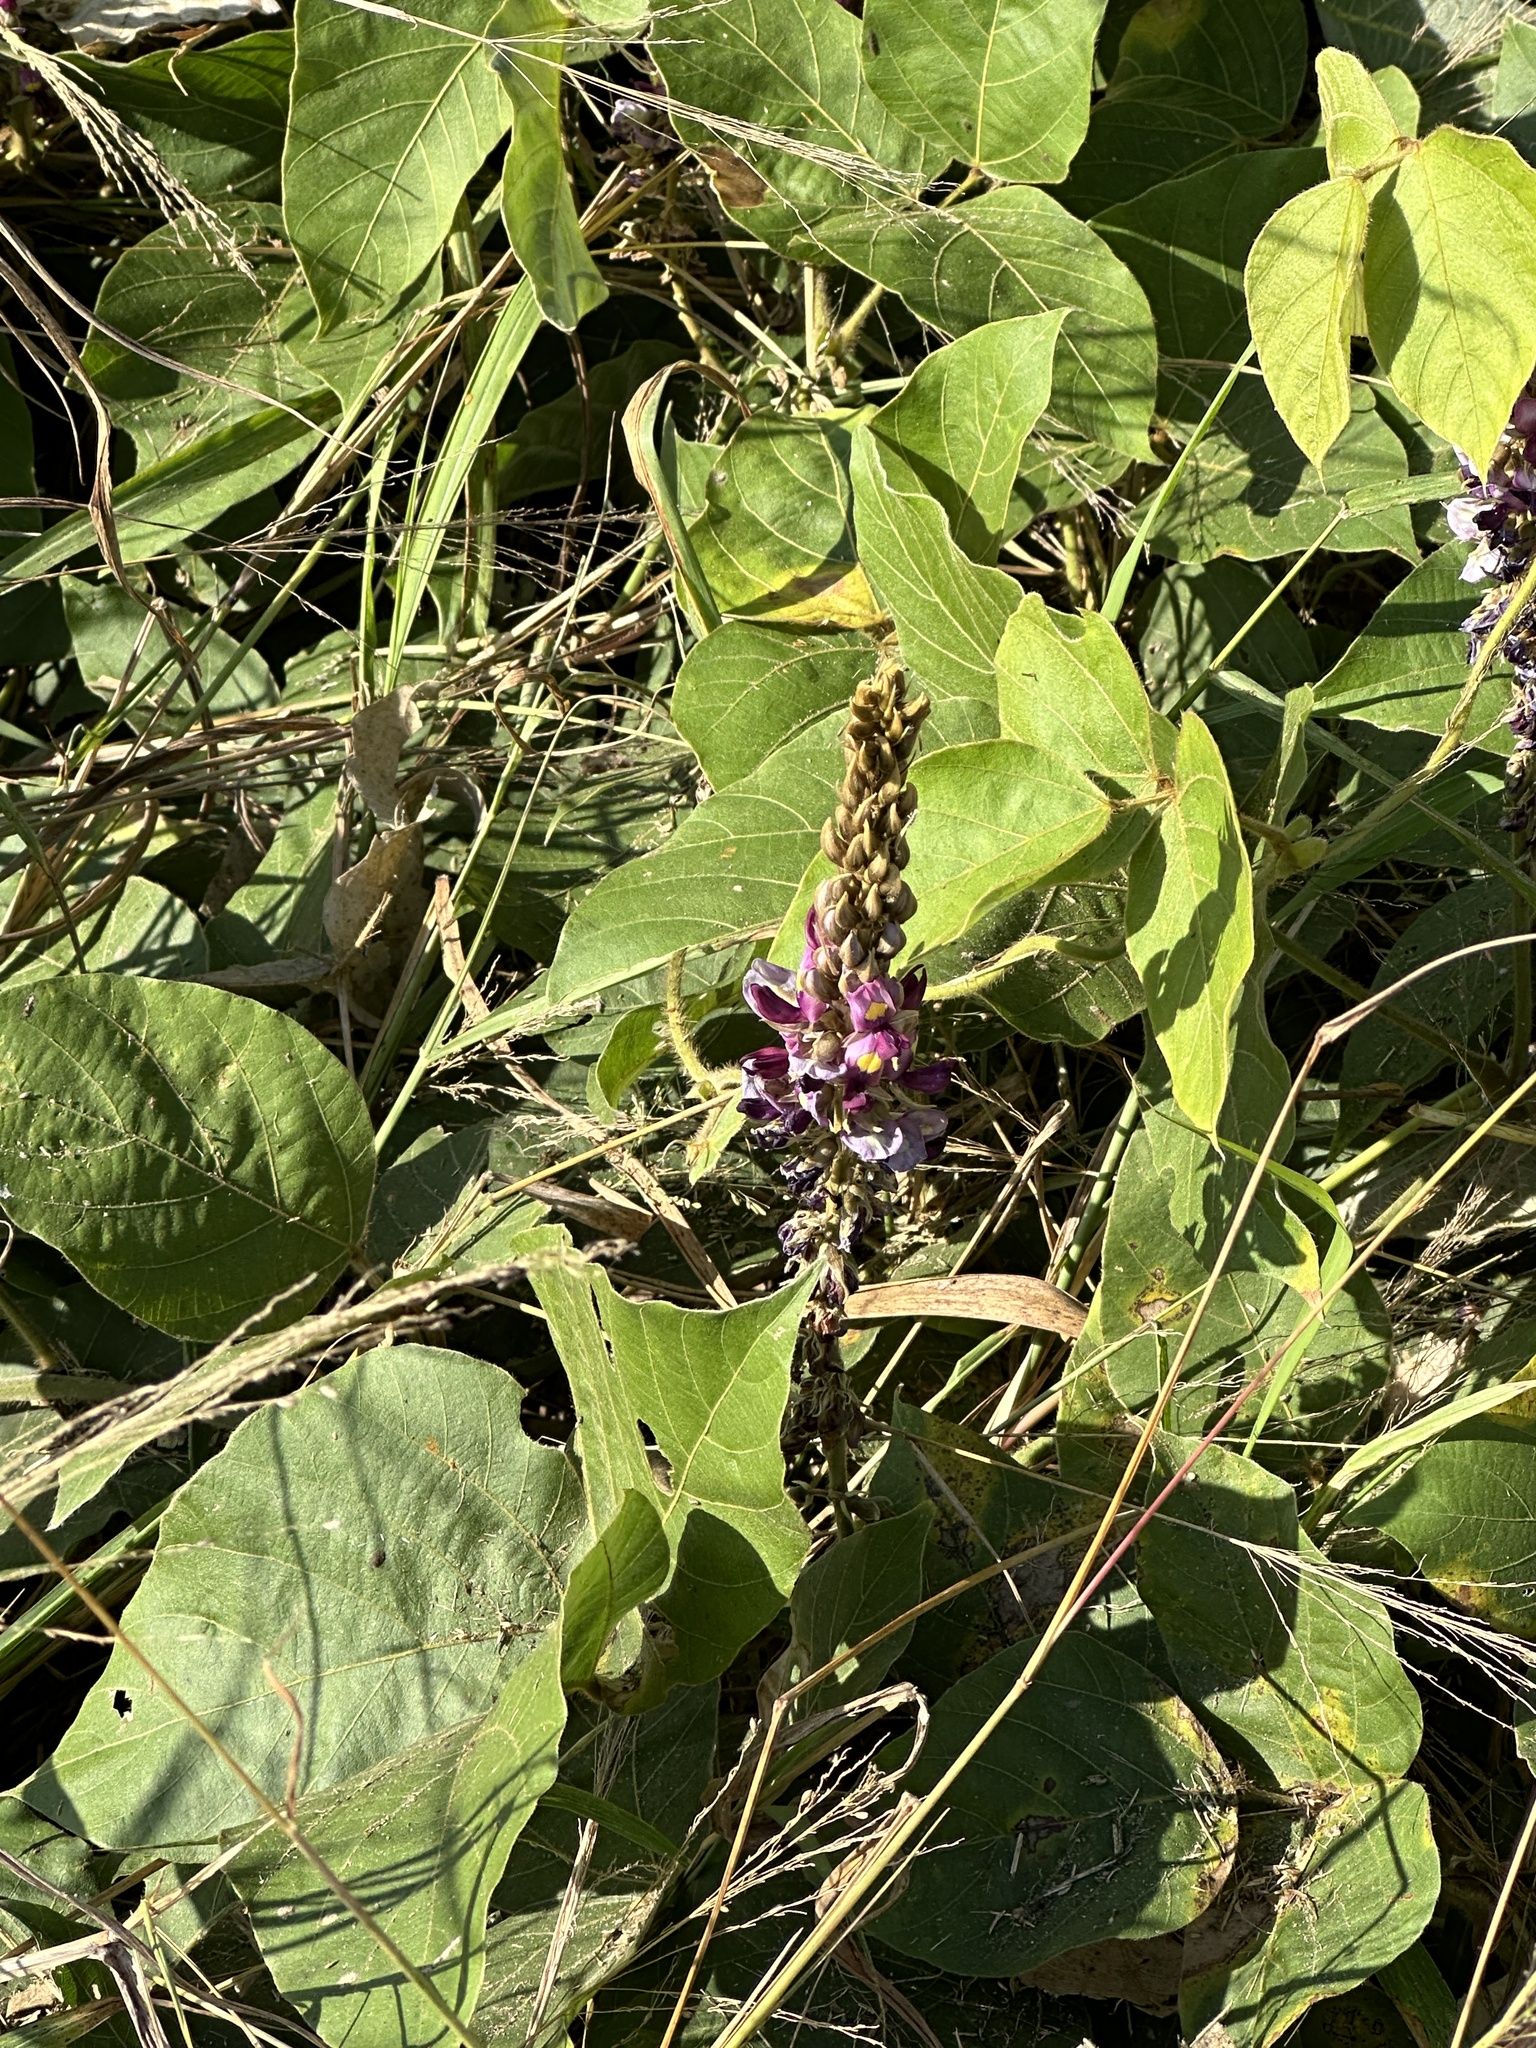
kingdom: Plantae
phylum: Tracheophyta
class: Magnoliopsida
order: Fabales
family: Fabaceae
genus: Pueraria
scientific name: Pueraria montana
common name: Kudzu
